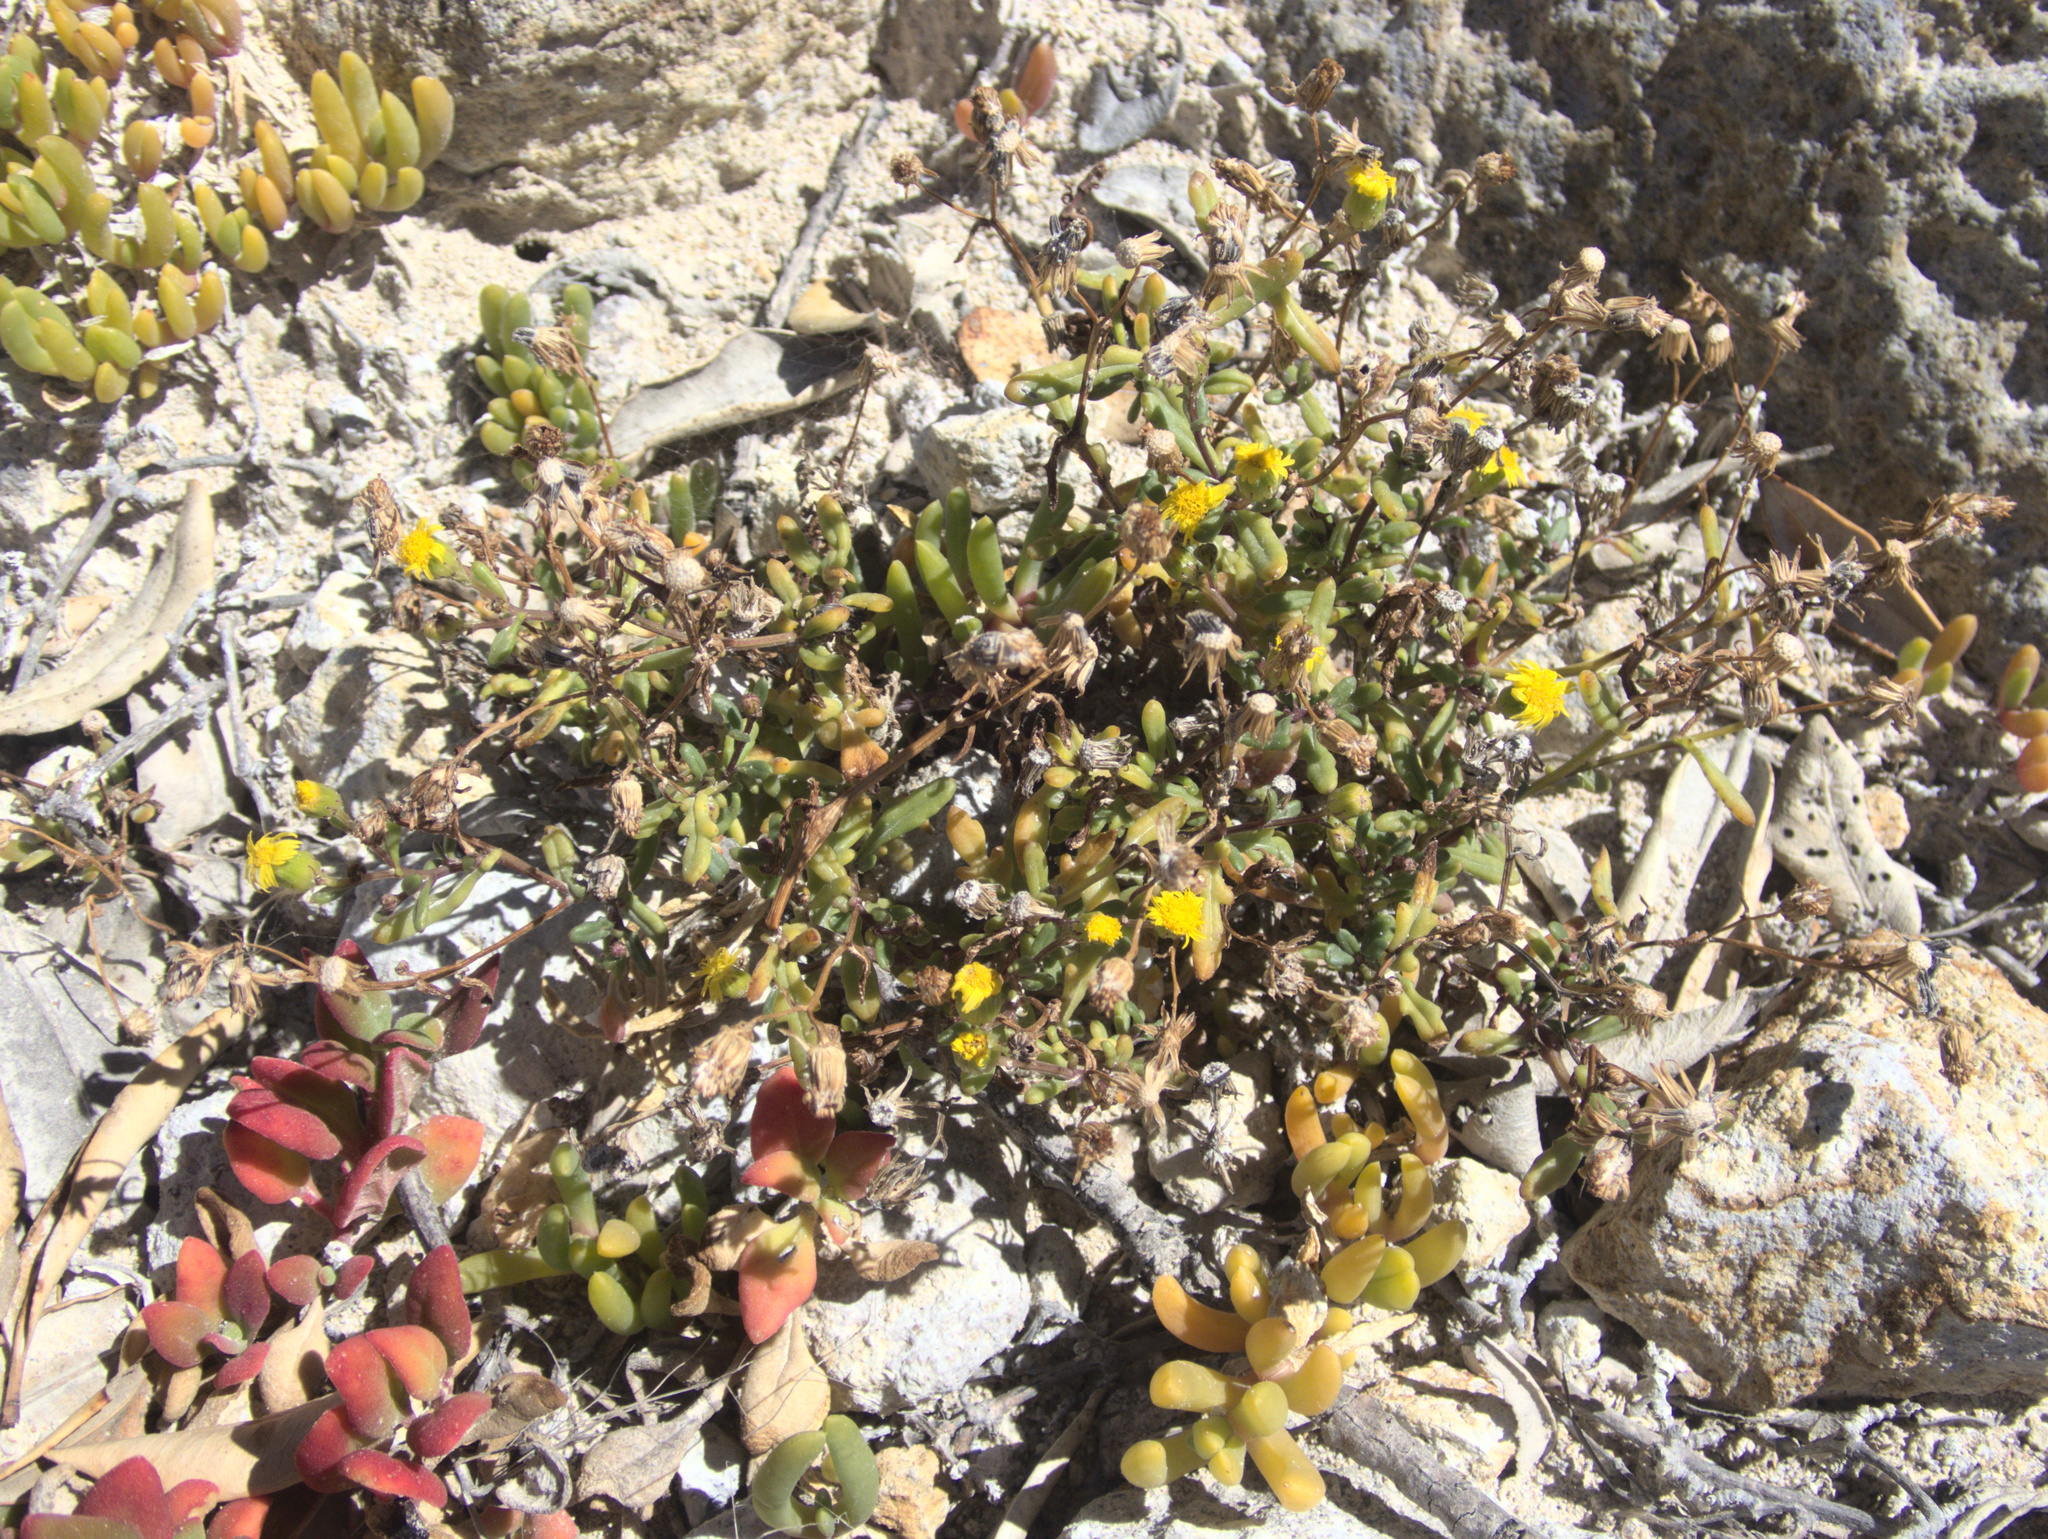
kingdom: Plantae
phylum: Tracheophyta
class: Magnoliopsida
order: Asterales
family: Asteraceae
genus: Senecio
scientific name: Senecio lautus
